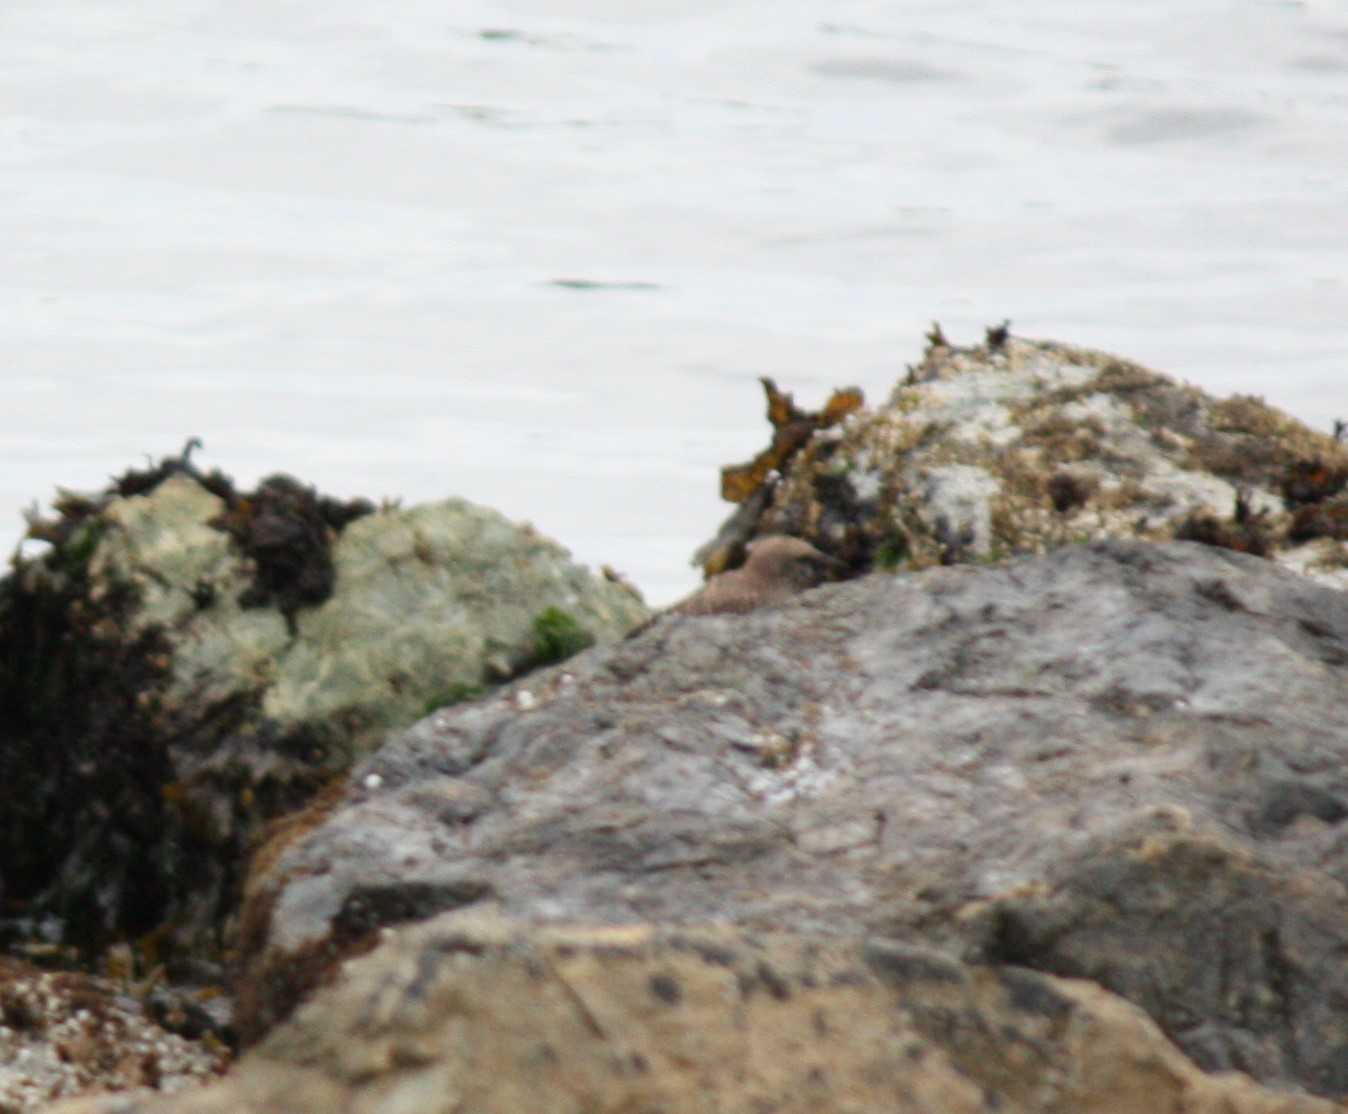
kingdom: Animalia
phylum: Chordata
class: Aves
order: Passeriformes
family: Sturnidae
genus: Sturnus
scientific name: Sturnus vulgaris
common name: Common starling
